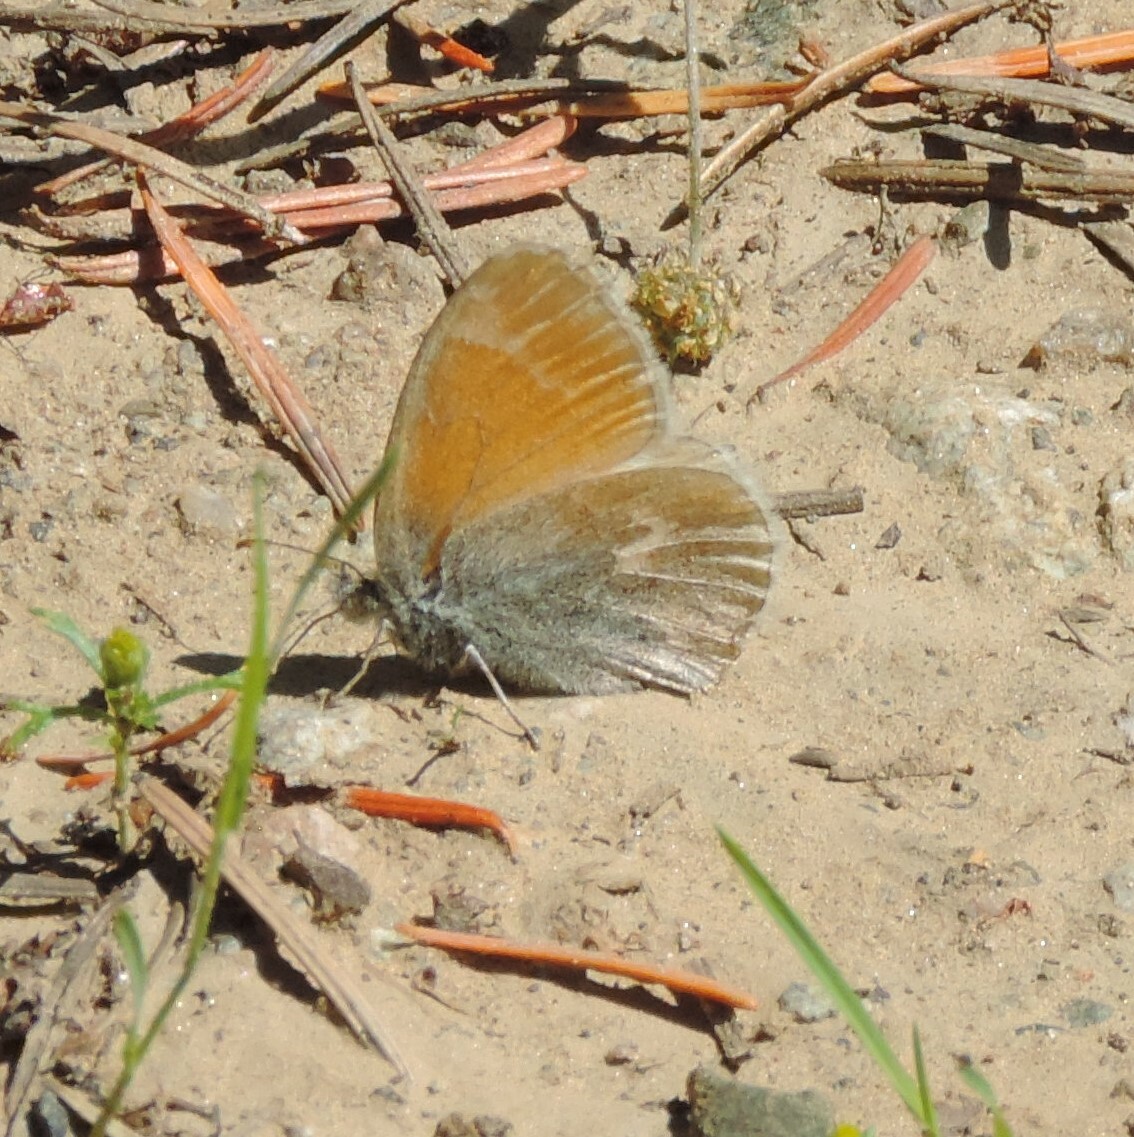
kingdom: Animalia
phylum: Arthropoda
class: Insecta
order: Lepidoptera
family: Nymphalidae
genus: Coenonympha
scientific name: Coenonympha california
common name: Common ringlet
